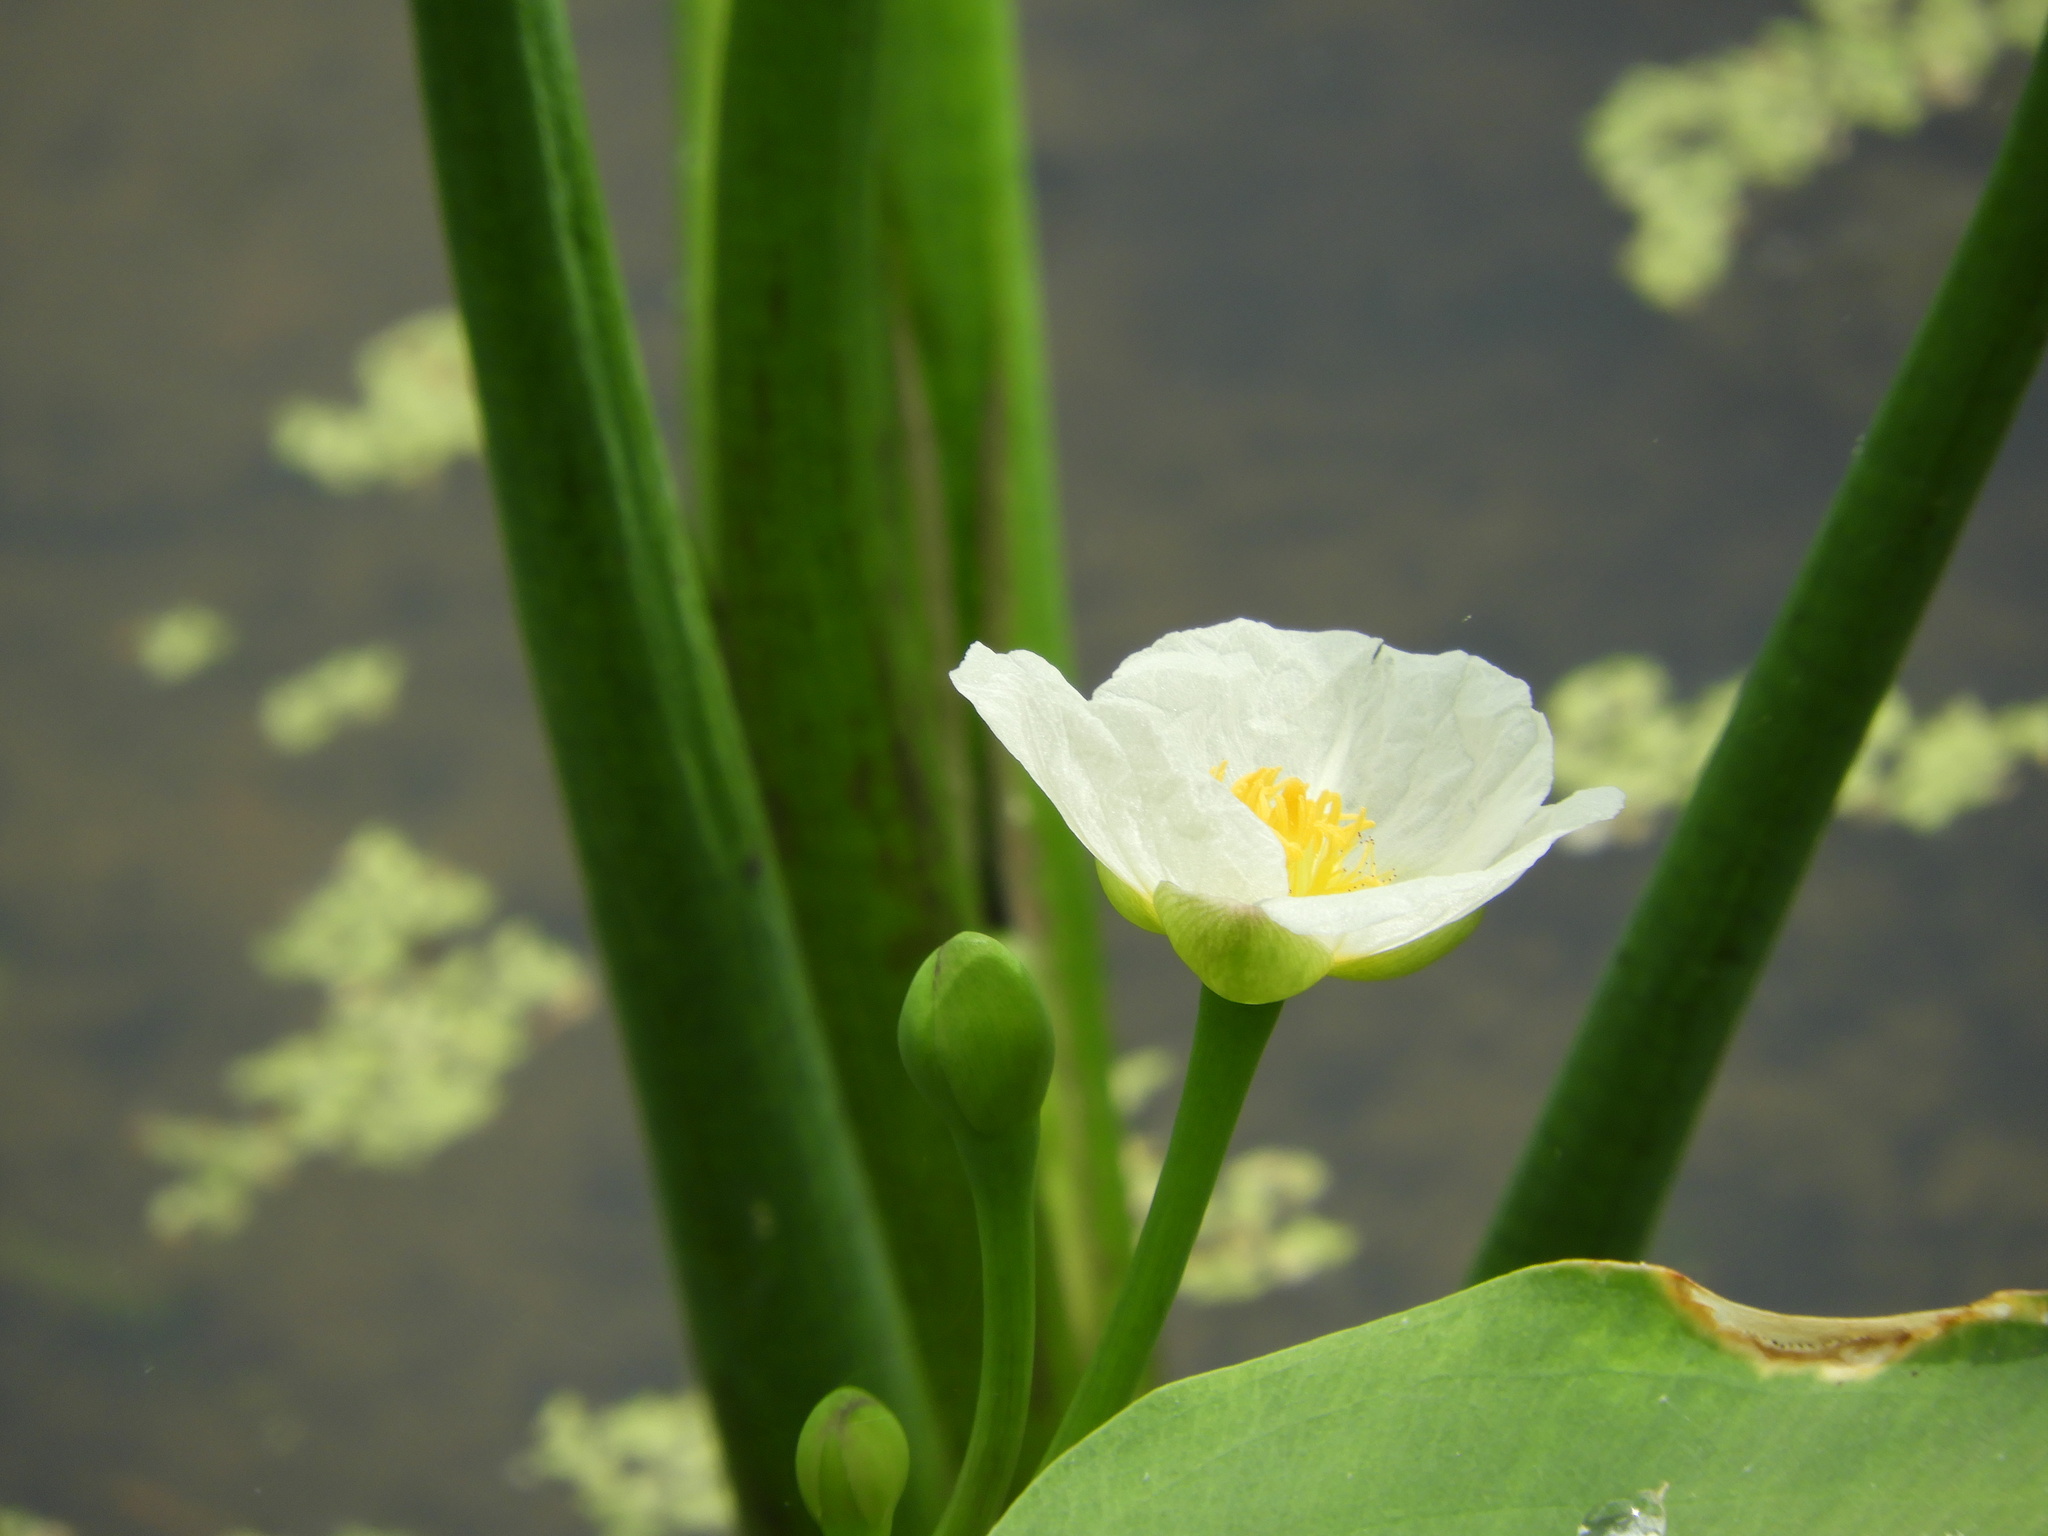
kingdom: Plantae
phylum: Tracheophyta
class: Liliopsida
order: Alismatales
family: Alismataceae
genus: Sagittaria
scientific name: Sagittaria calycina
